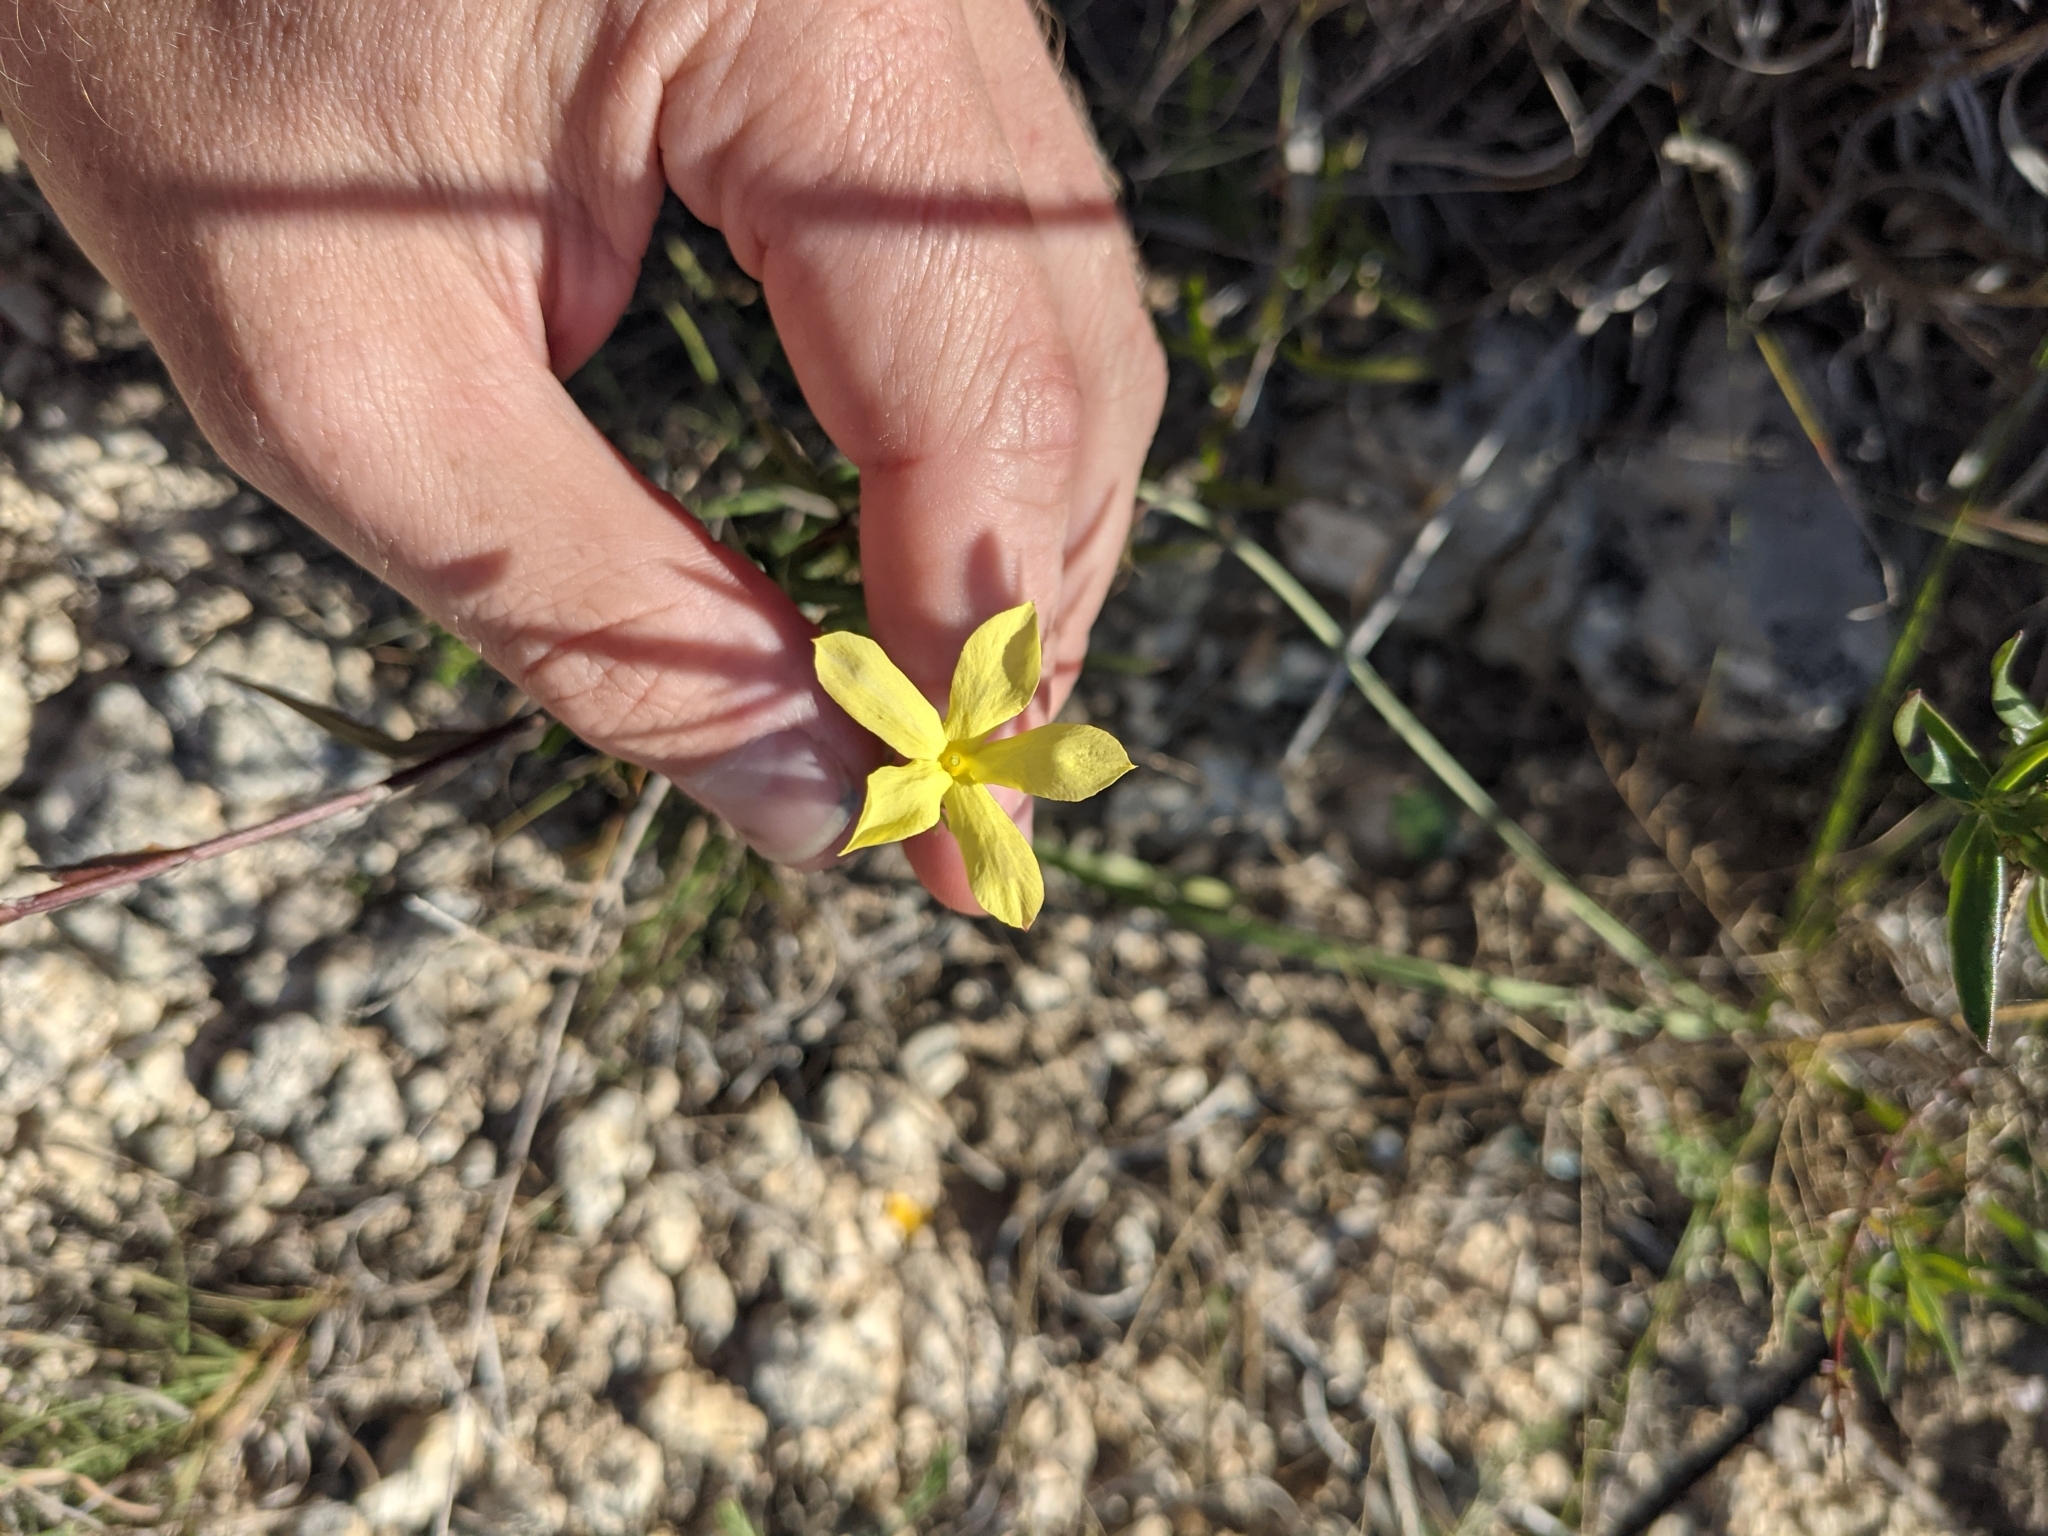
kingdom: Plantae
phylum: Tracheophyta
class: Magnoliopsida
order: Lamiales
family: Oleaceae
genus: Menodora
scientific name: Menodora longiflora
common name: Showy menodora
